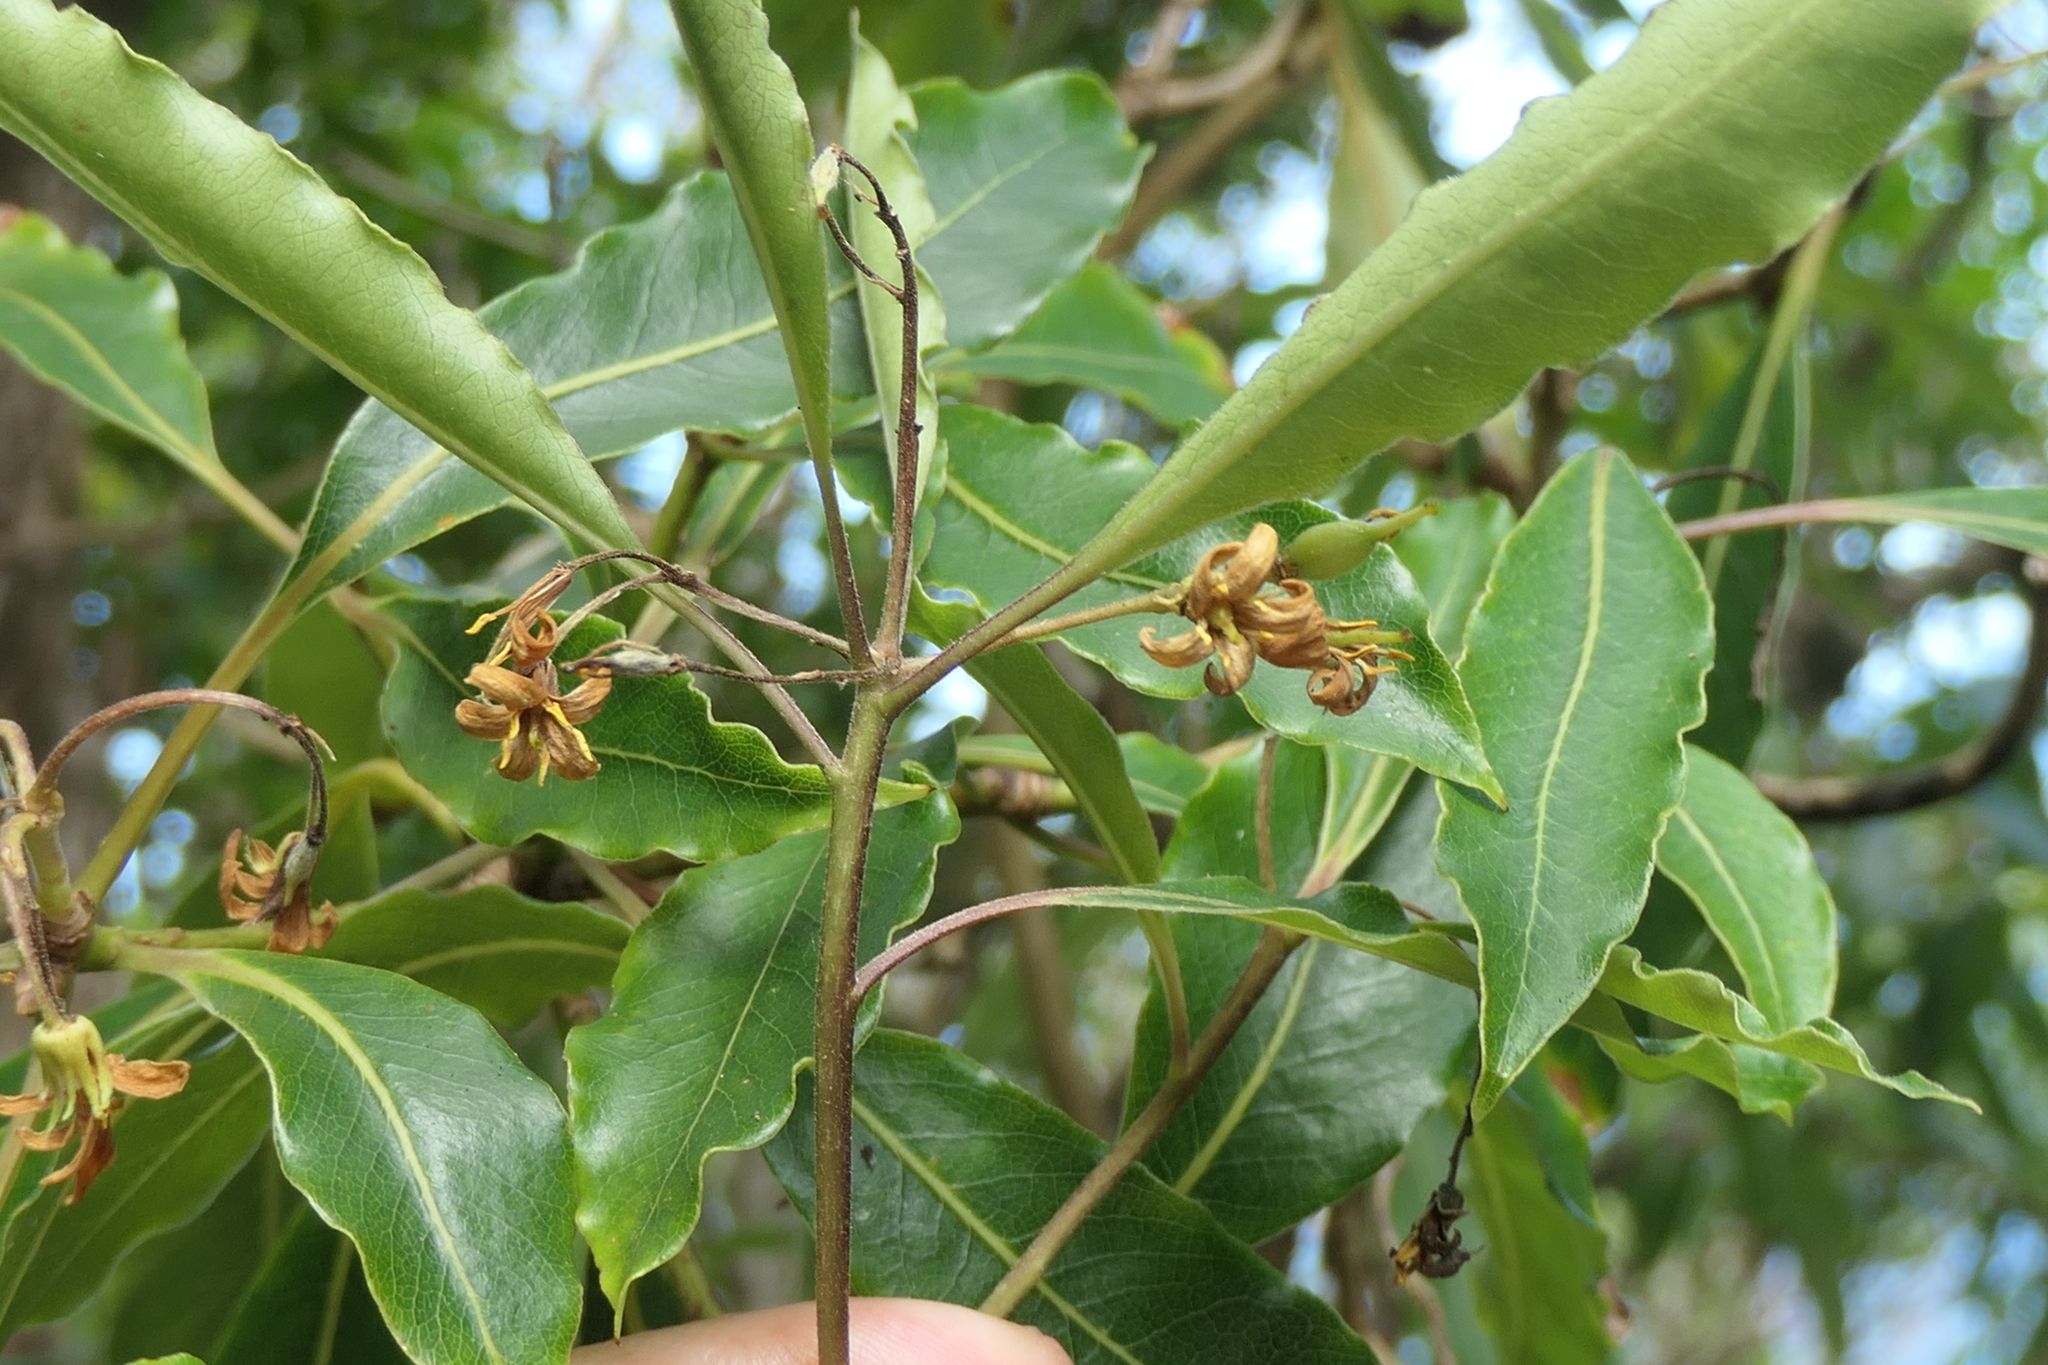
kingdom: Plantae
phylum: Tracheophyta
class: Magnoliopsida
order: Apiales
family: Pittosporaceae
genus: Pittosporum
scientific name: Pittosporum undulatum
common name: Australian cheesewood
